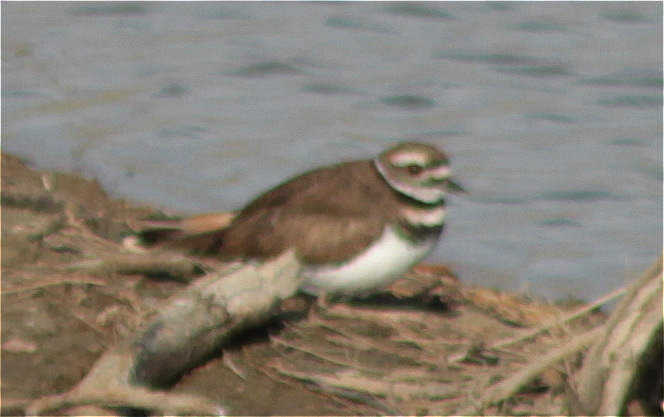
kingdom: Animalia
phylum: Chordata
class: Aves
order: Charadriiformes
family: Charadriidae
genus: Charadrius
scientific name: Charadrius vociferus
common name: Killdeer
